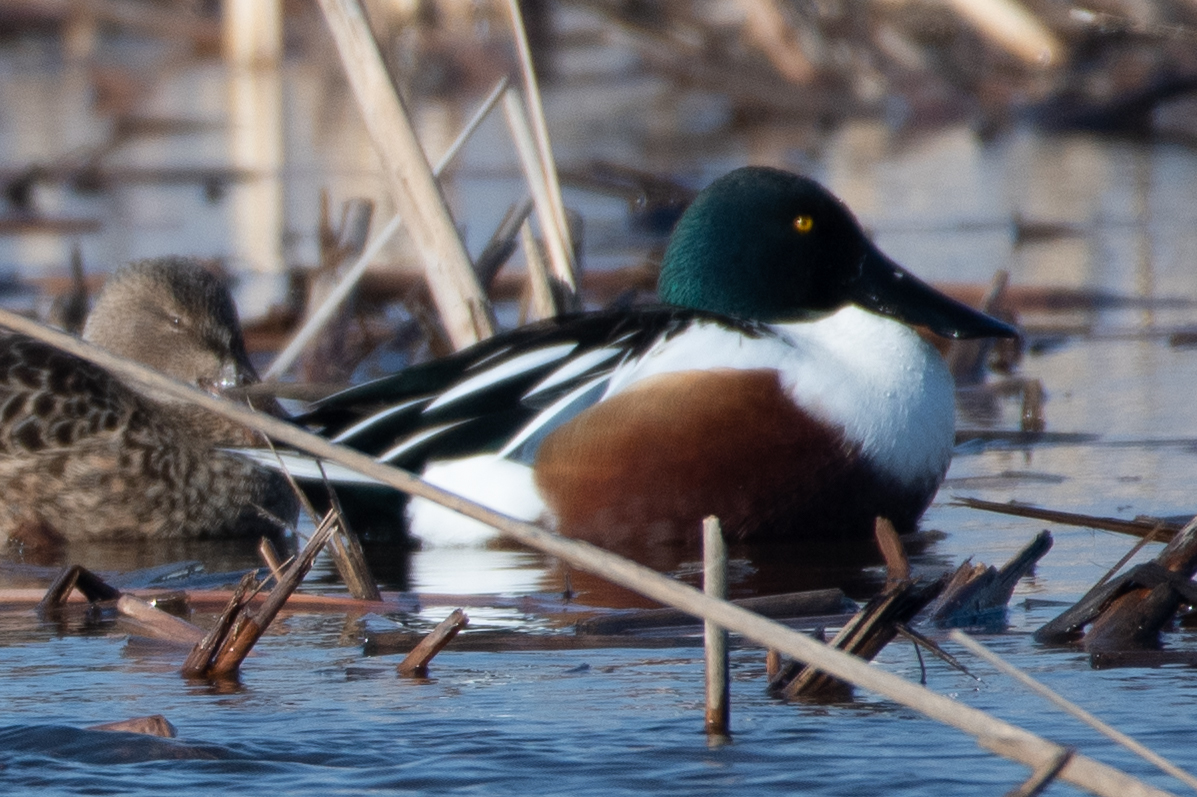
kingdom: Animalia
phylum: Chordata
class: Aves
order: Anseriformes
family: Anatidae
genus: Spatula
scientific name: Spatula clypeata
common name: Northern shoveler
